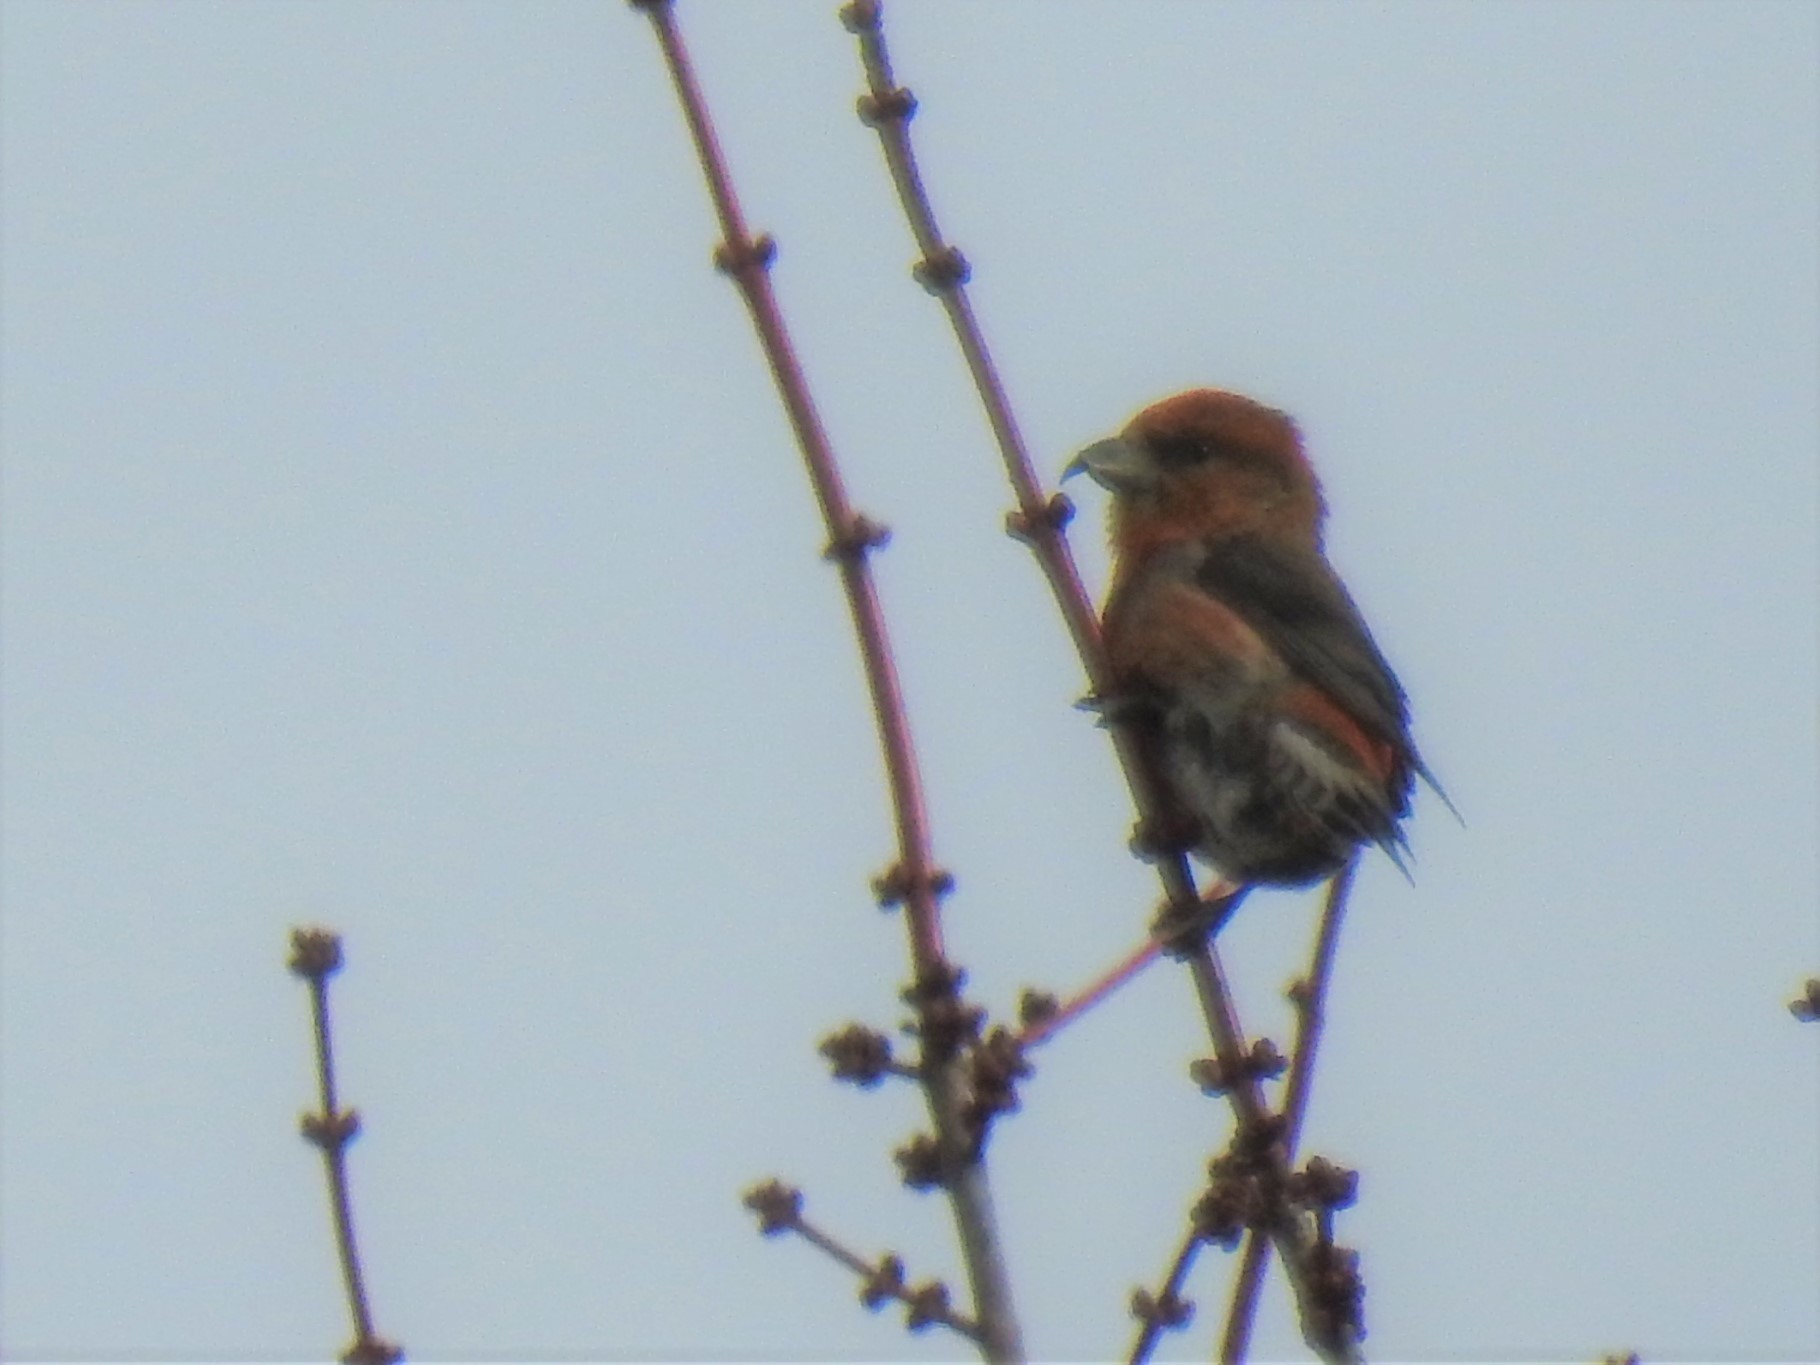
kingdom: Animalia
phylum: Chordata
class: Aves
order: Passeriformes
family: Fringillidae
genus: Loxia
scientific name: Loxia curvirostra
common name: Red crossbill
